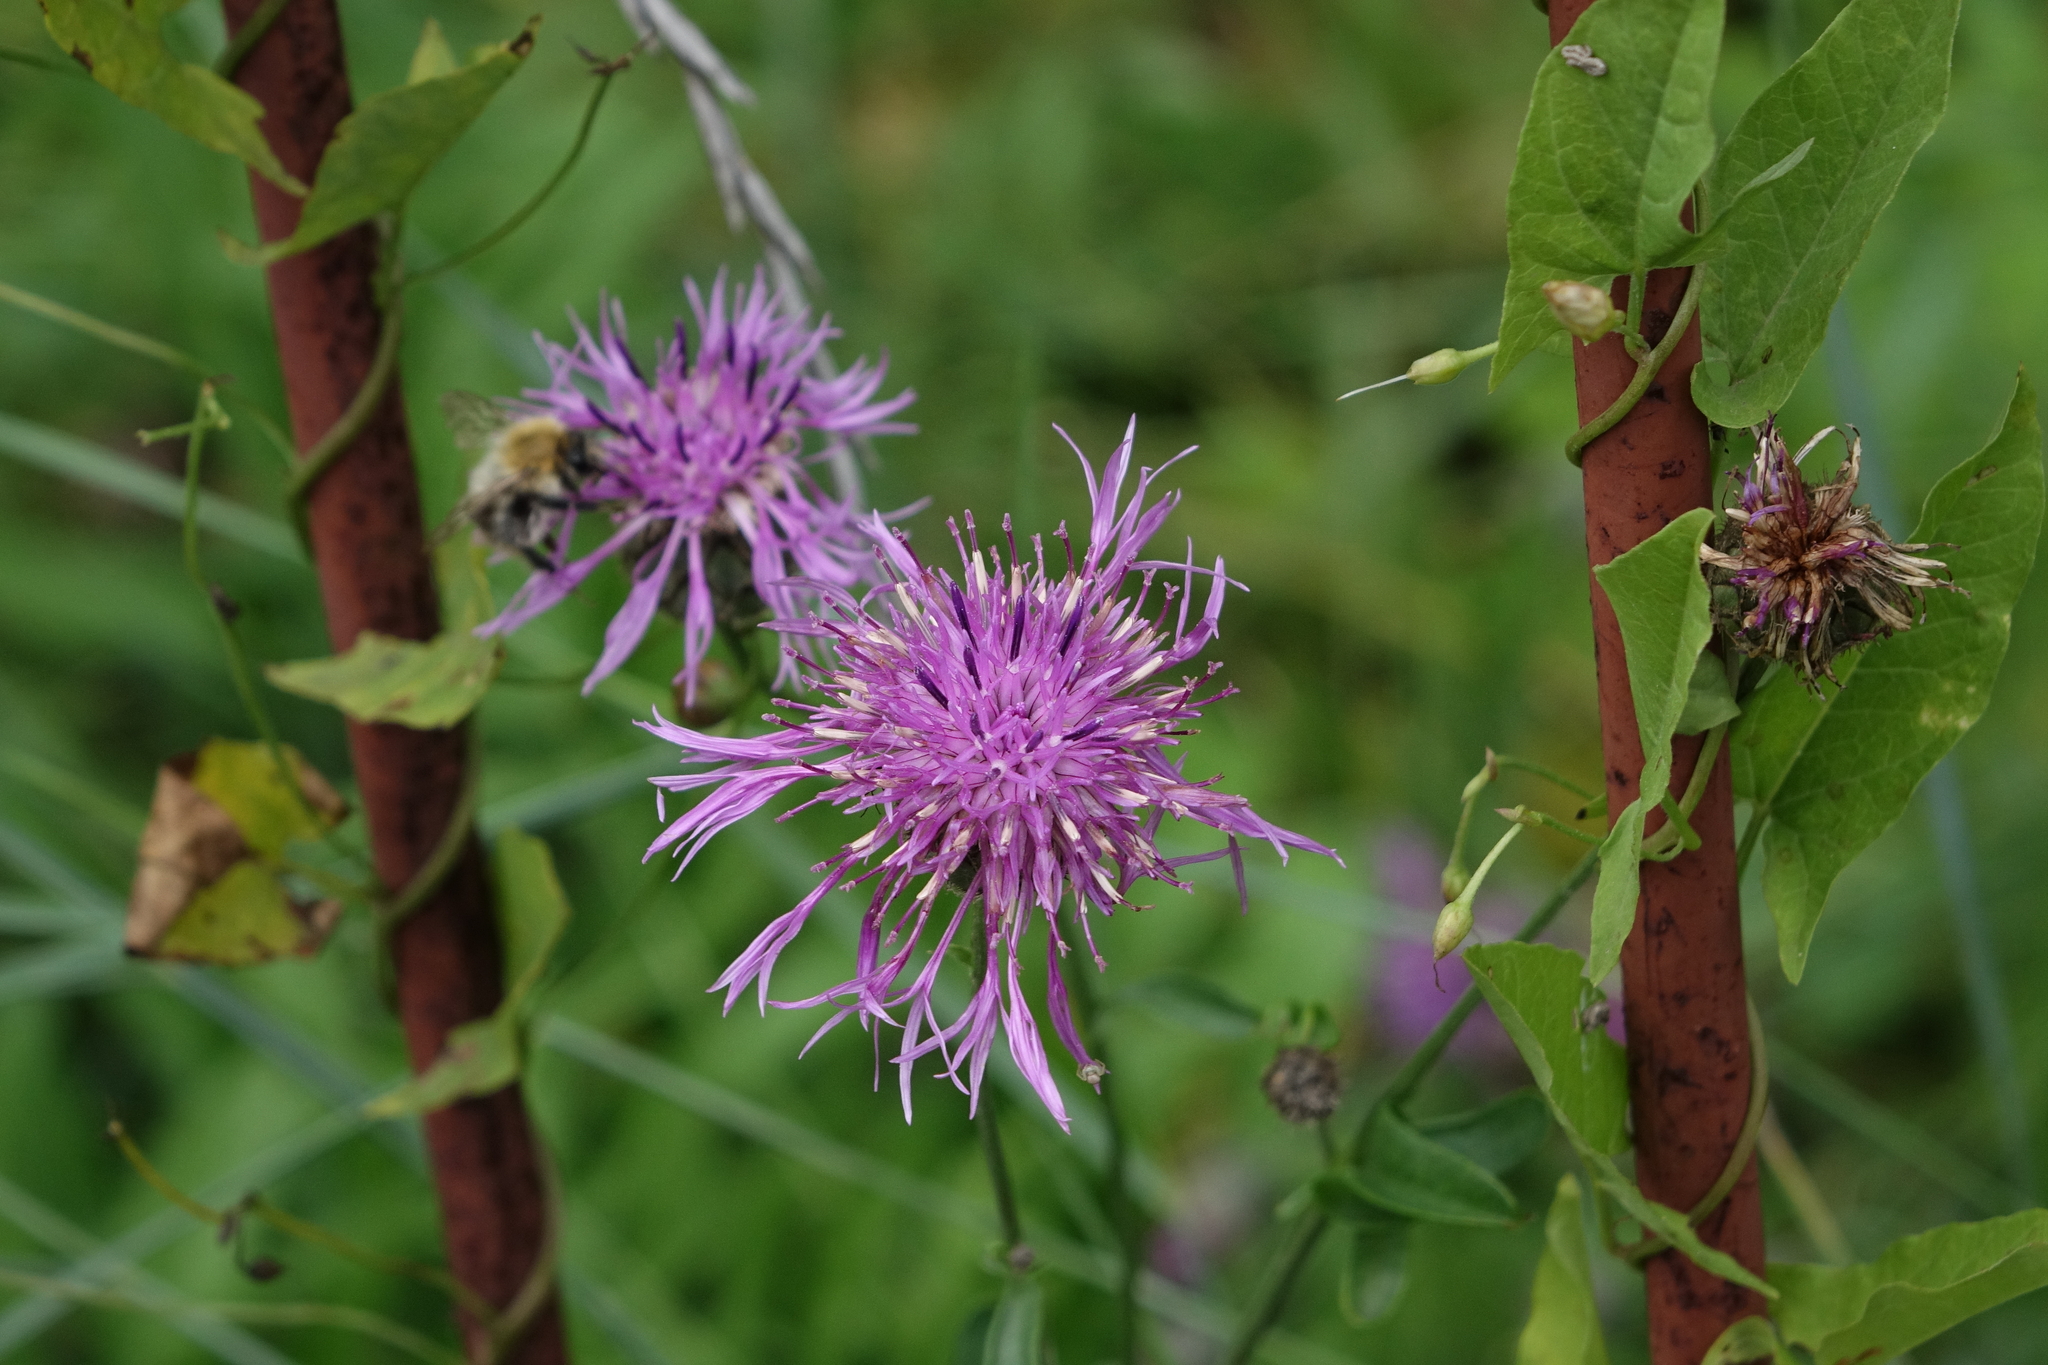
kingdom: Plantae
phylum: Tracheophyta
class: Magnoliopsida
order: Asterales
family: Asteraceae
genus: Centaurea
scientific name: Centaurea scabiosa
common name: Greater knapweed
